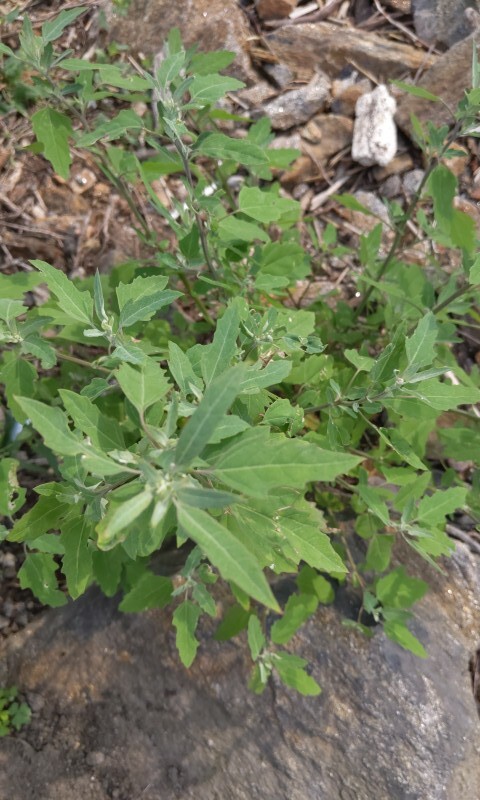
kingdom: Plantae
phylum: Tracheophyta
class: Magnoliopsida
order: Caryophyllales
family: Amaranthaceae
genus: Chenopodium
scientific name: Chenopodium album
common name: Fat-hen
